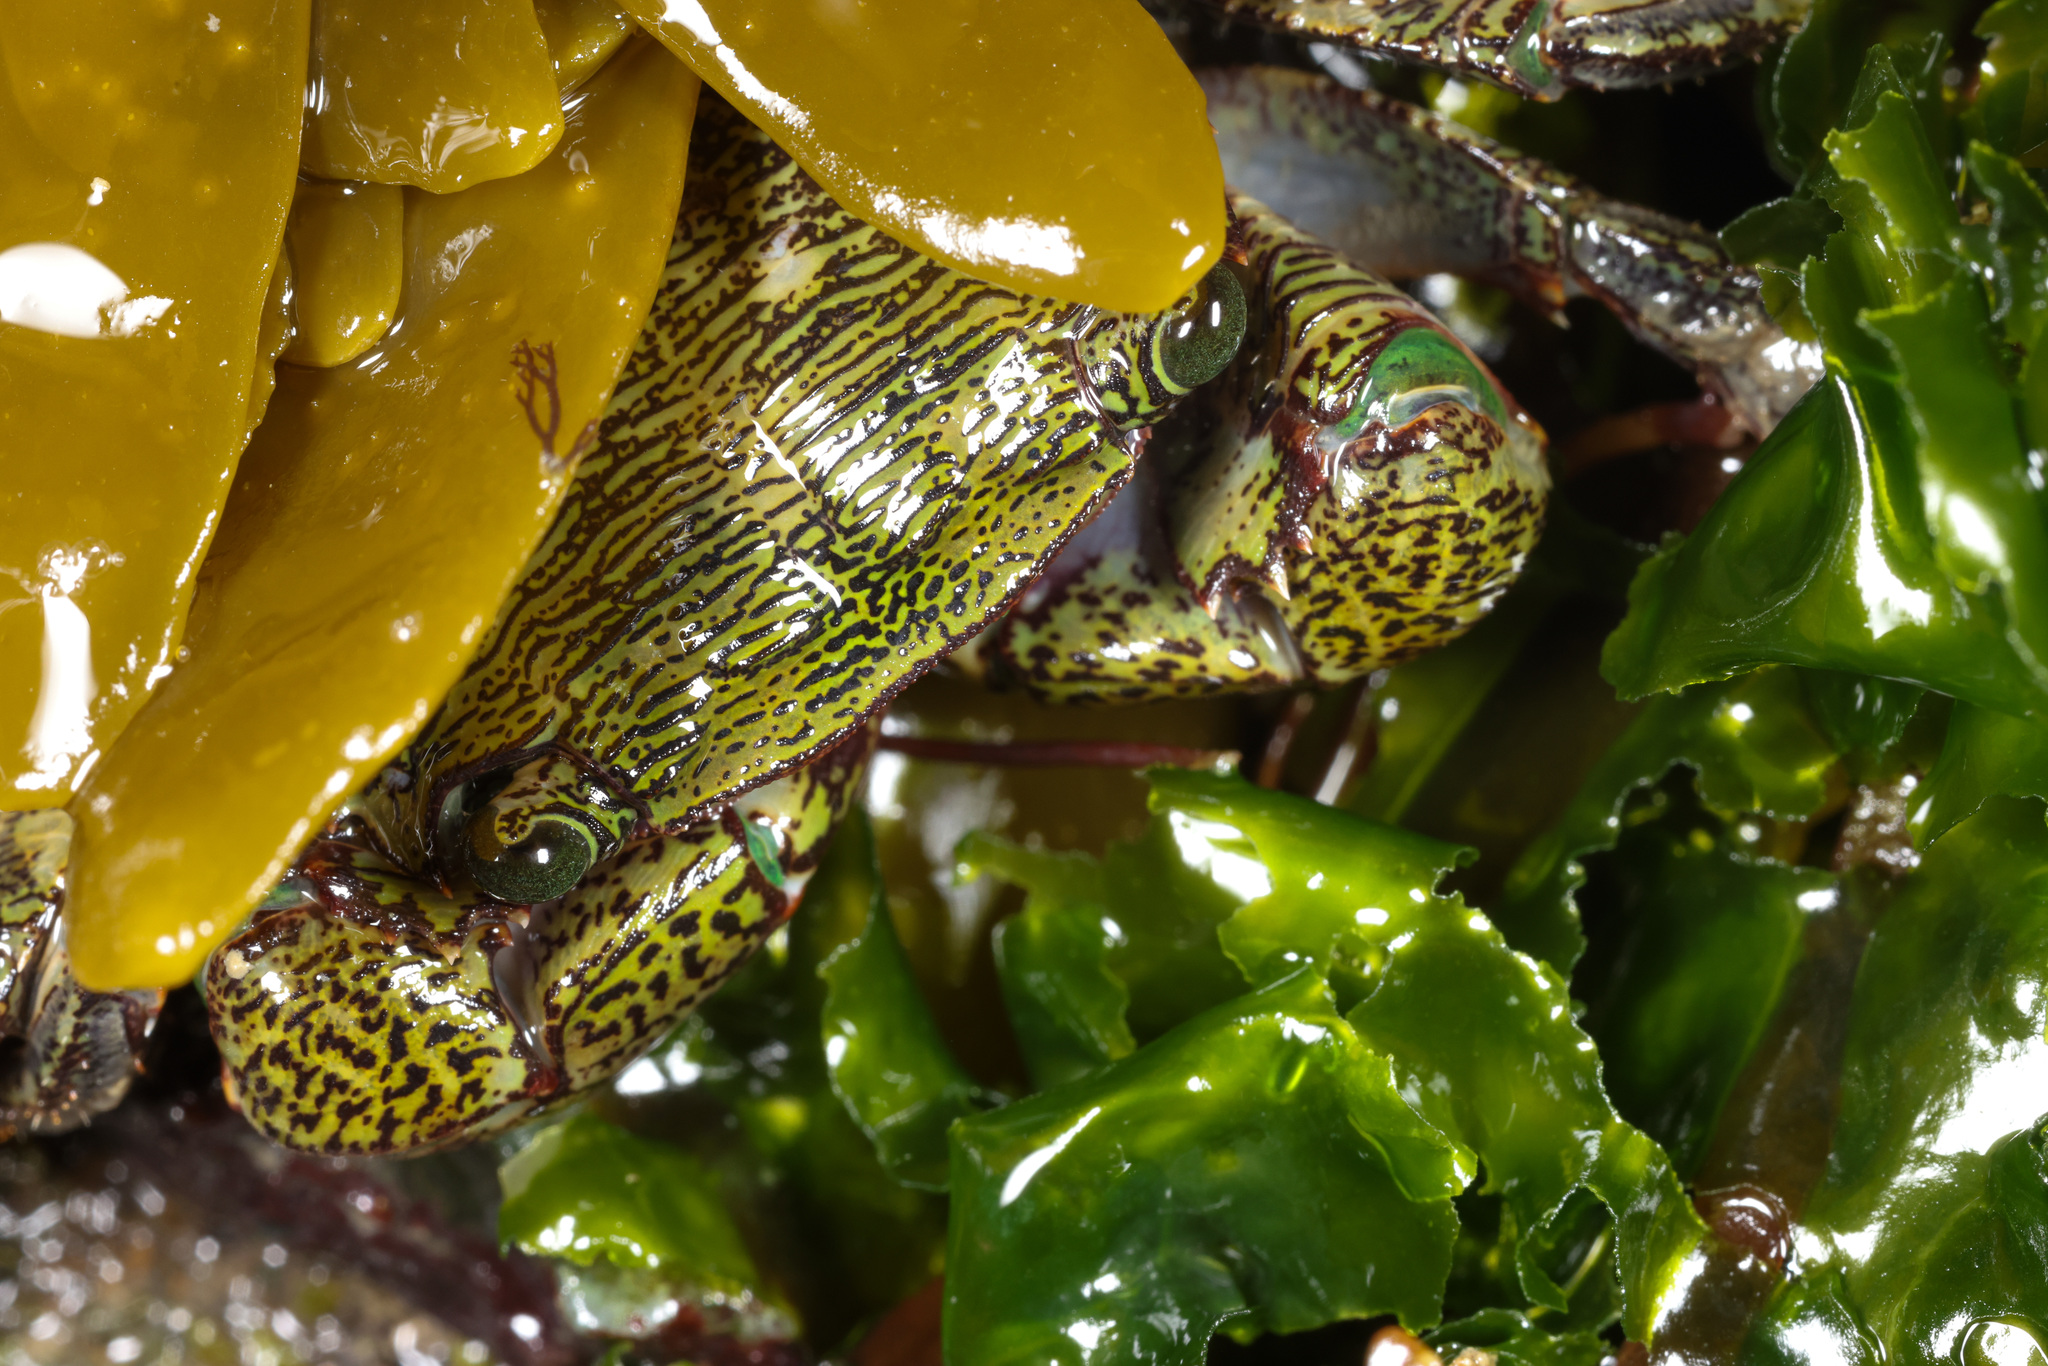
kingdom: Animalia
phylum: Arthropoda
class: Malacostraca
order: Decapoda
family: Grapsidae
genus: Pachygrapsus
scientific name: Pachygrapsus crassipes
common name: Striped shore crab
